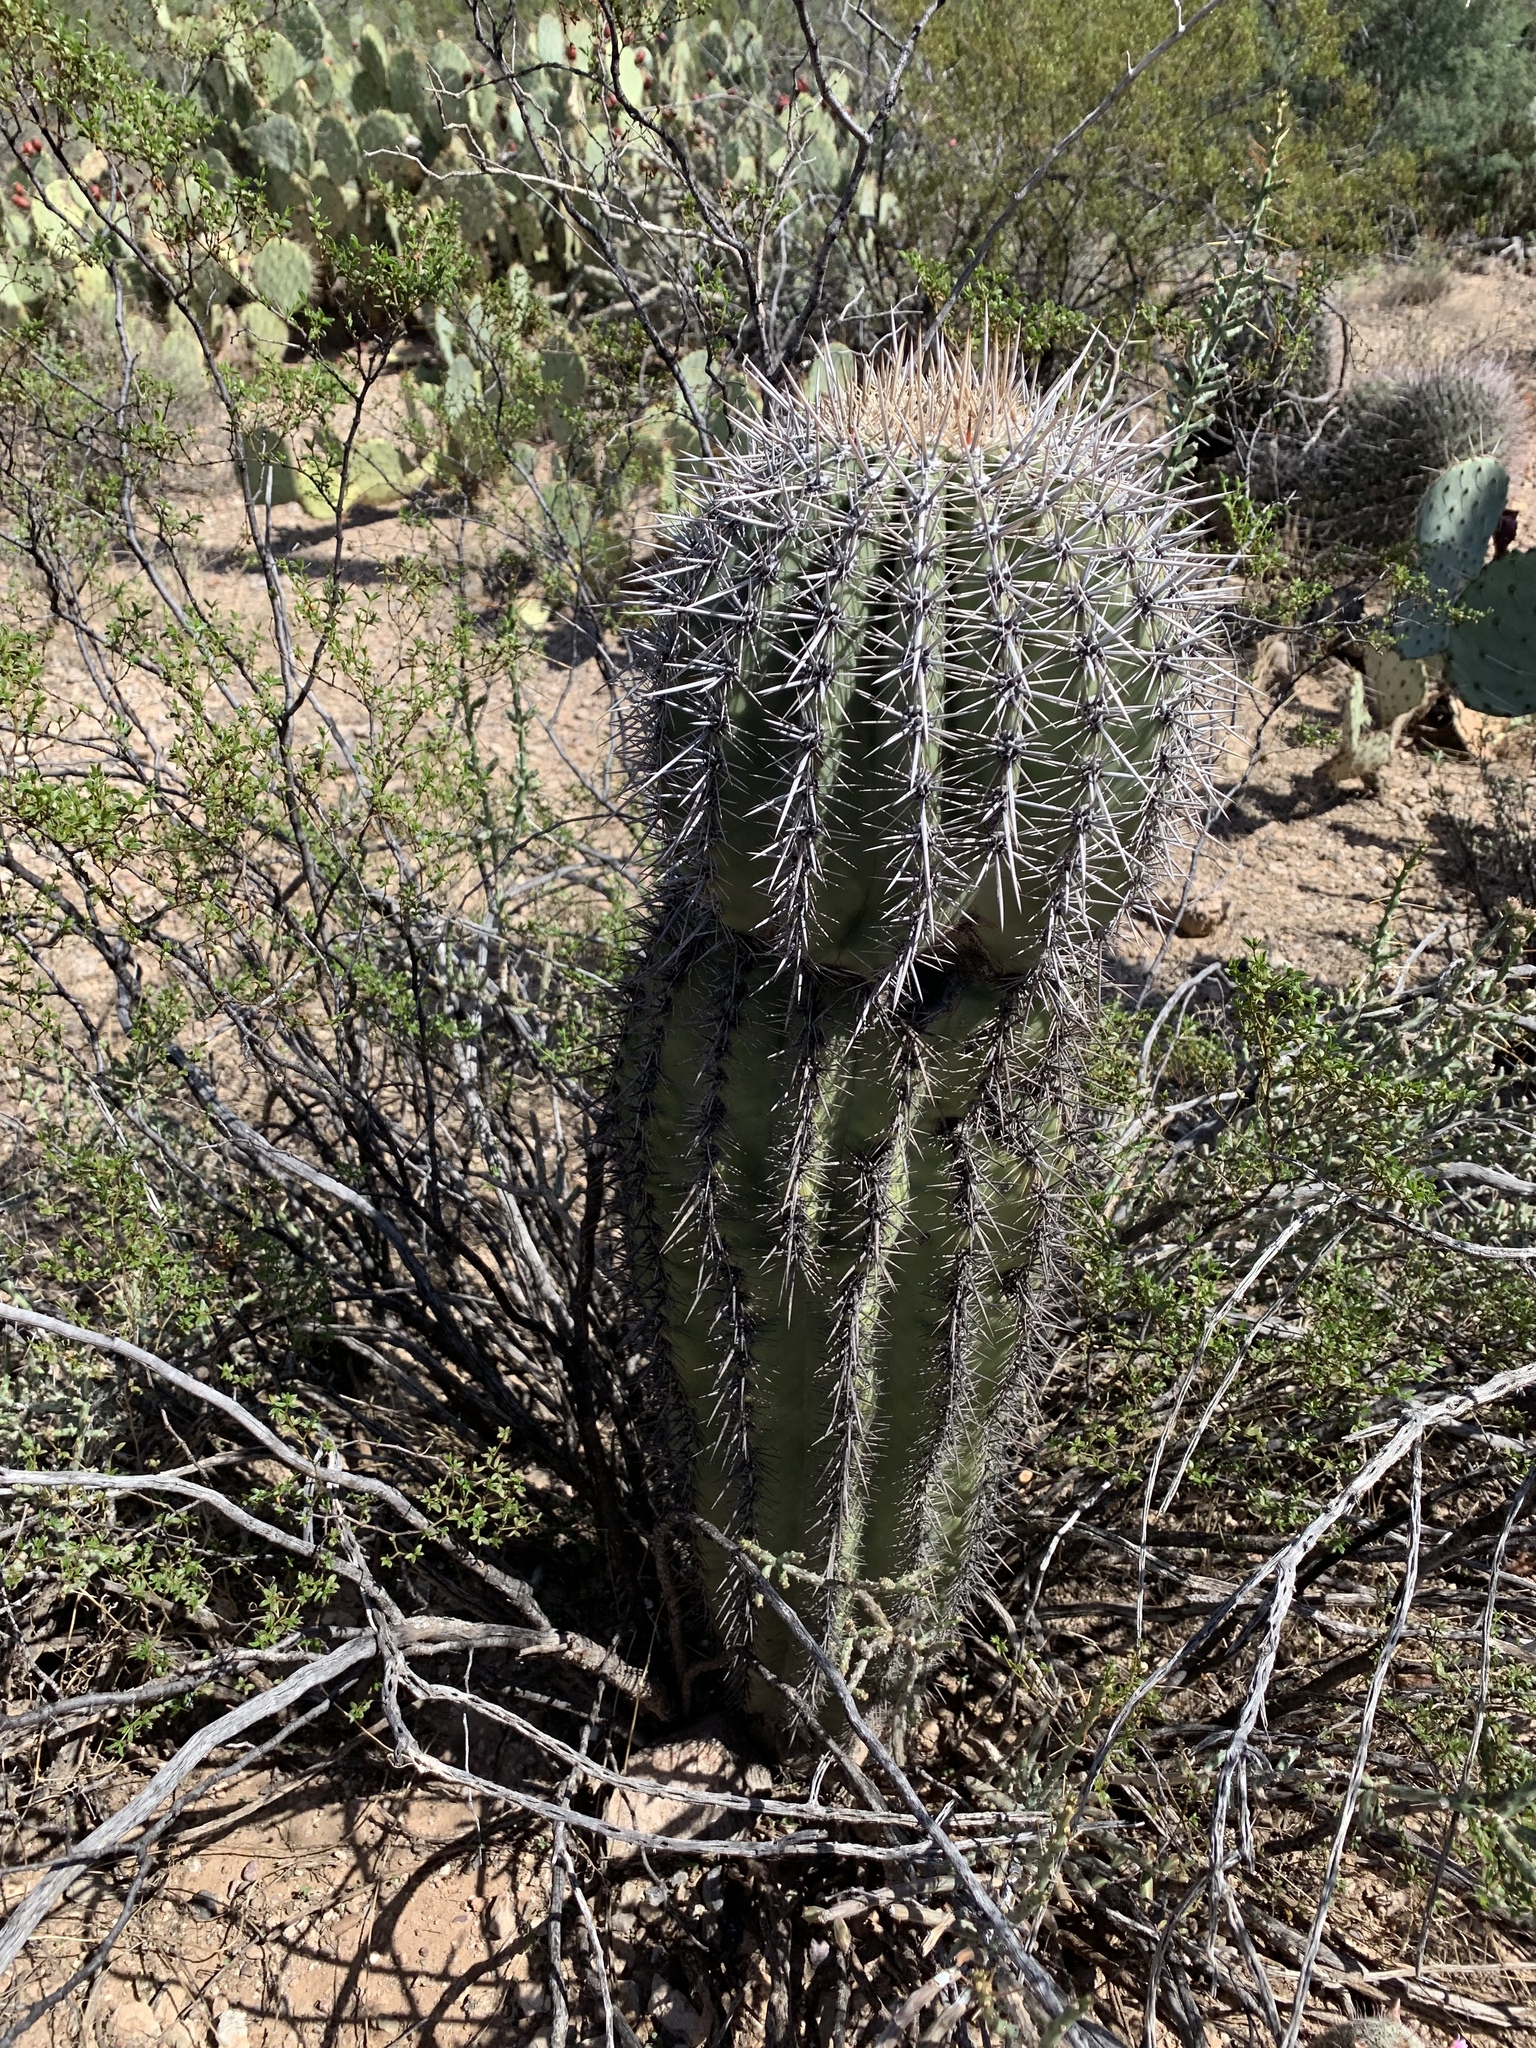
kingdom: Plantae
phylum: Tracheophyta
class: Magnoliopsida
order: Caryophyllales
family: Cactaceae
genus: Carnegiea
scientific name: Carnegiea gigantea
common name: Saguaro
